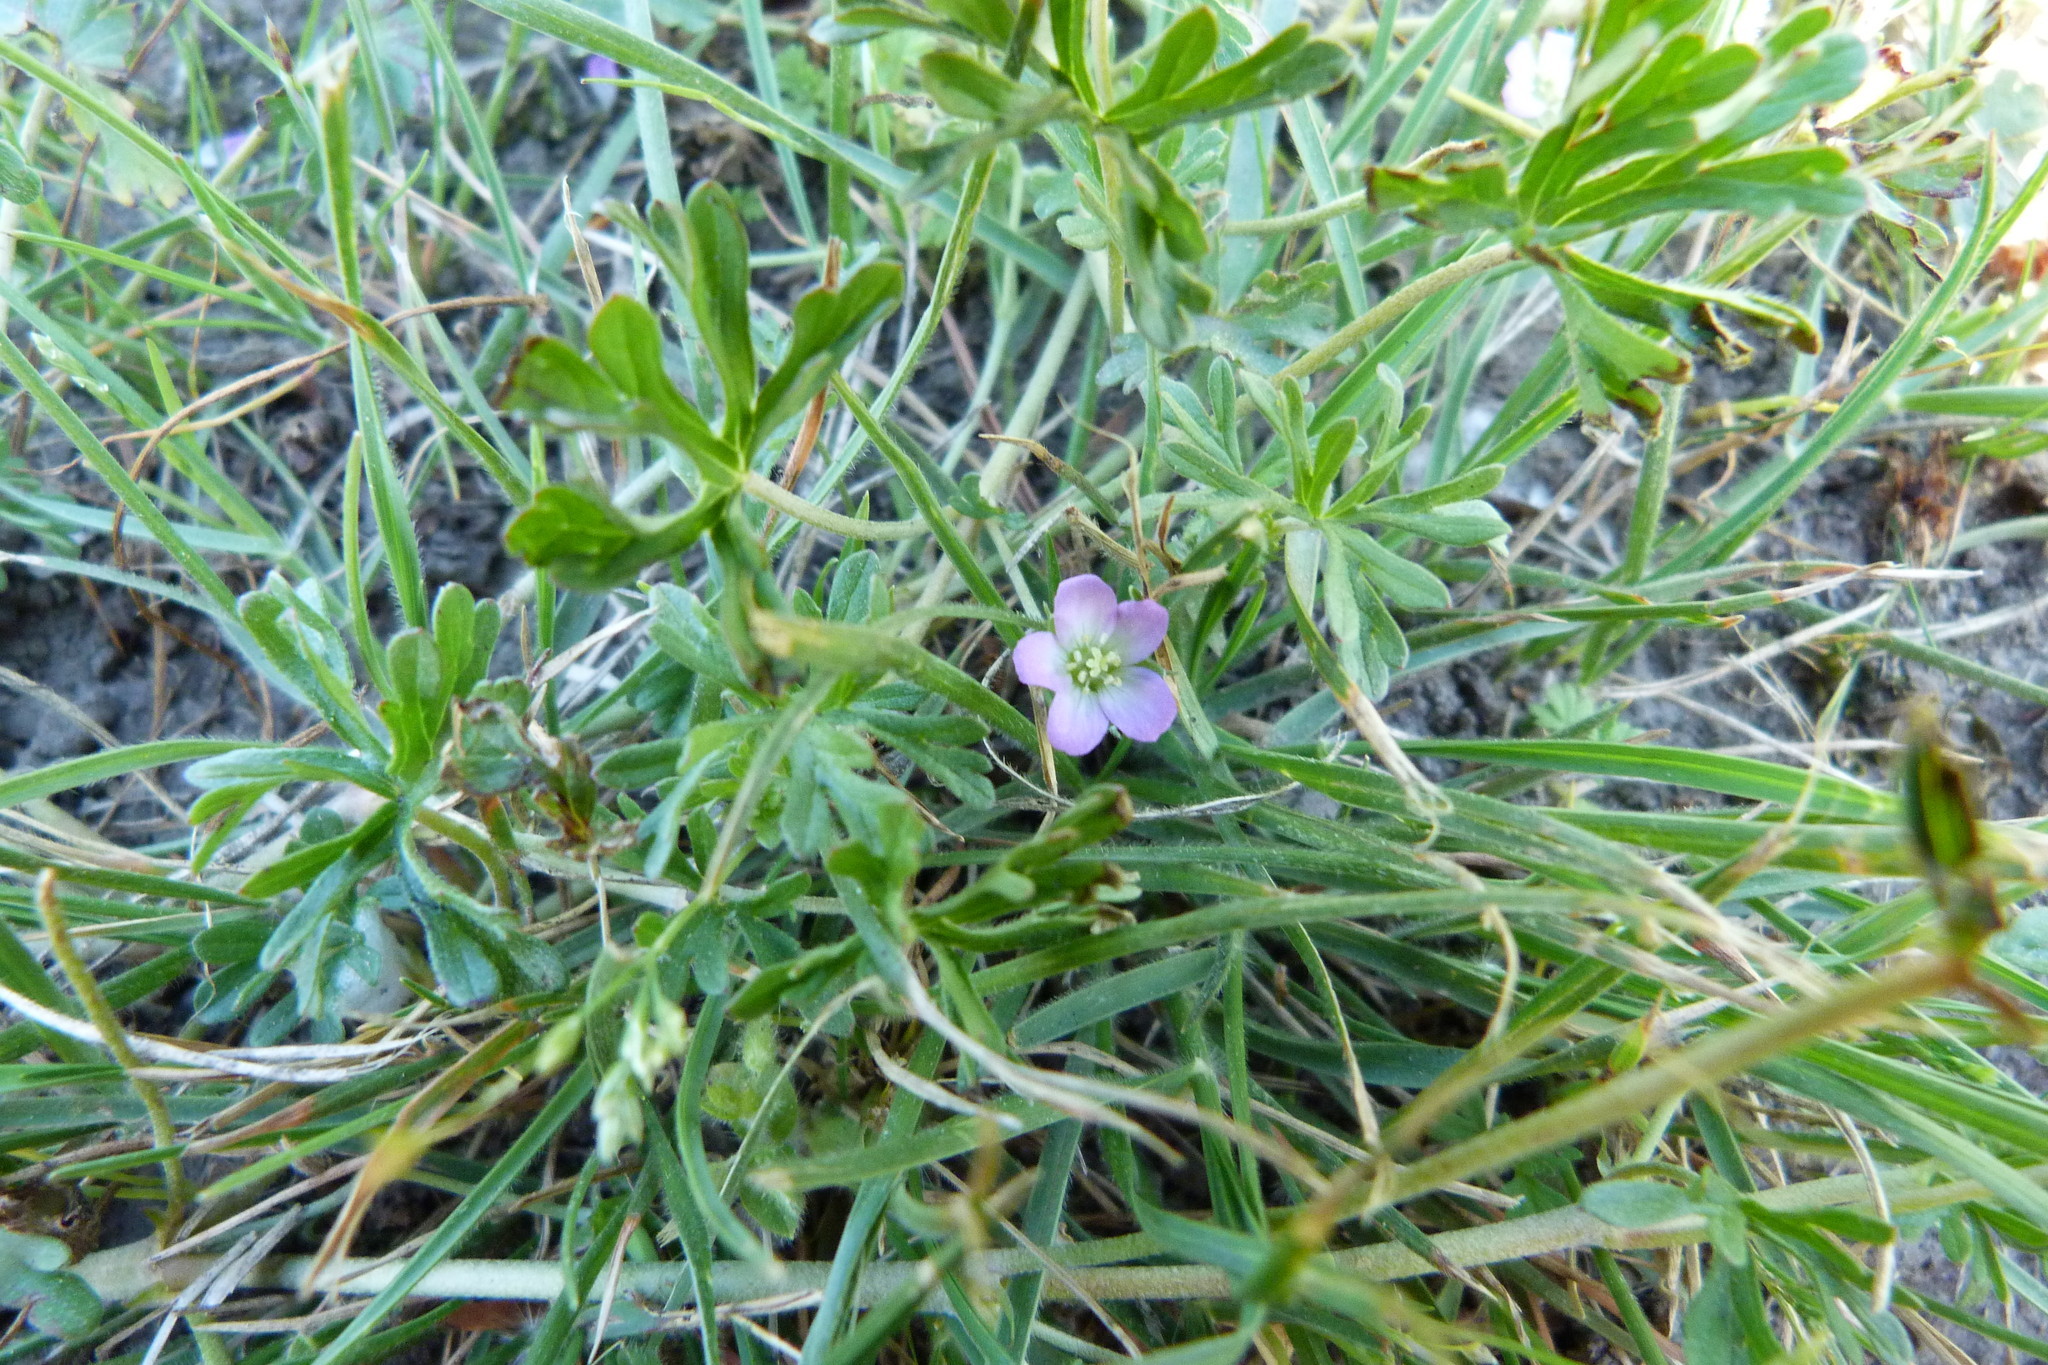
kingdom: Fungi
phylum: Basidiomycota
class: Pucciniomycetes
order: Pucciniales
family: Pucciniaceae
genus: Puccinia
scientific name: Puccinia geranii-pilosi
